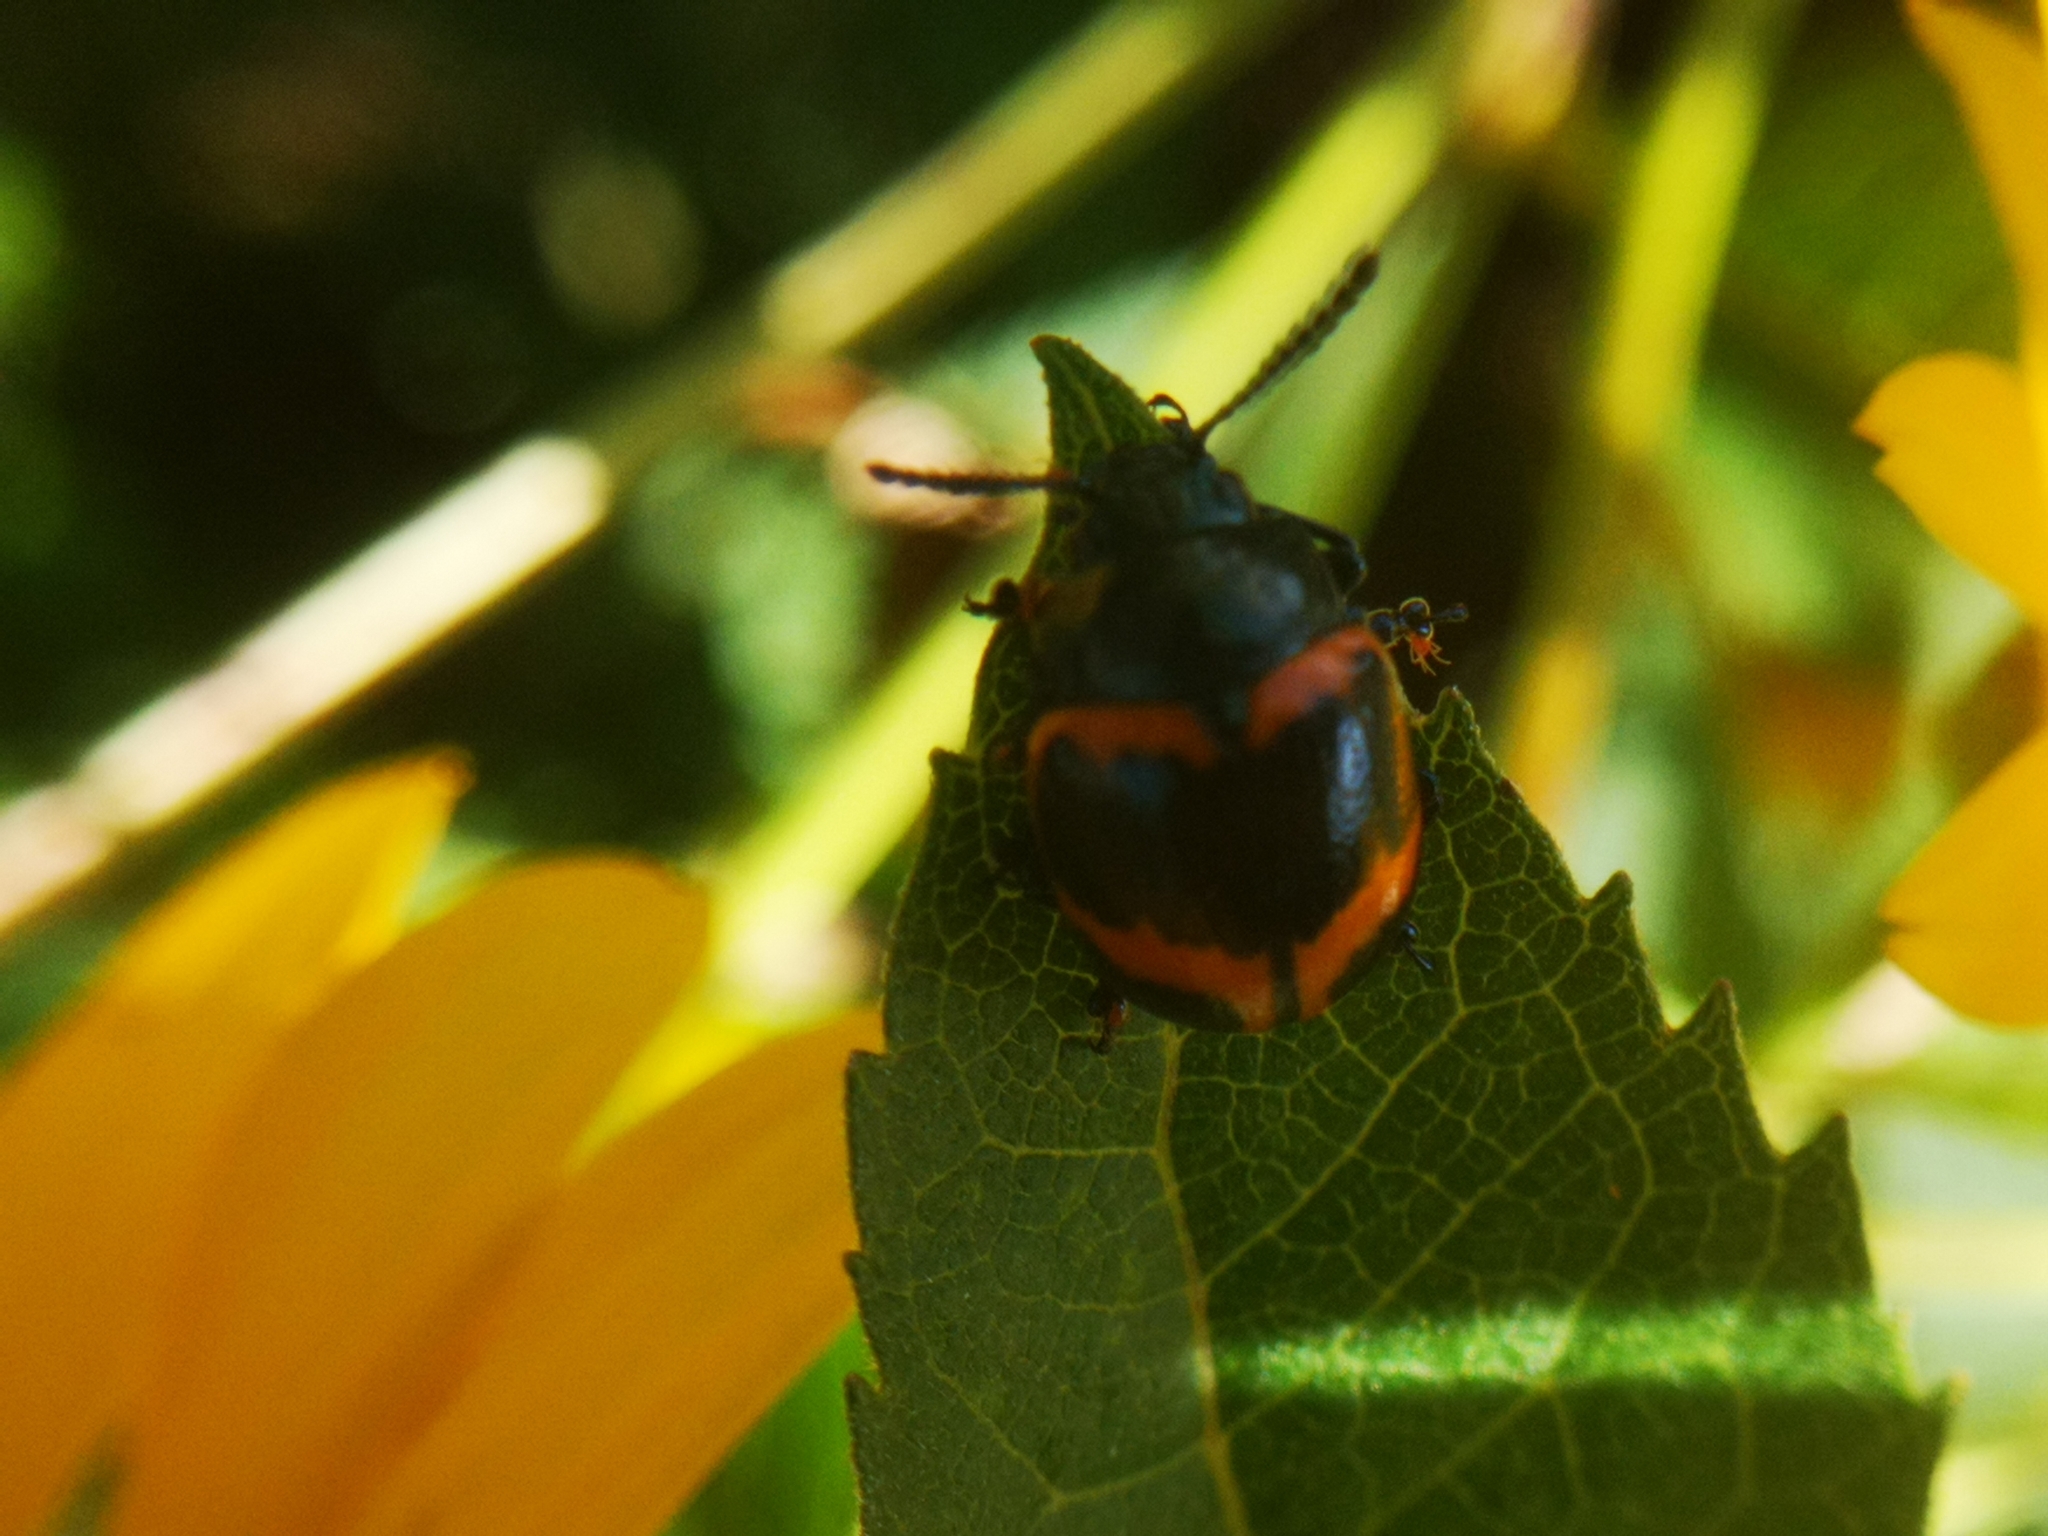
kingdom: Animalia
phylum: Arthropoda
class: Insecta
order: Coleoptera
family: Chrysomelidae
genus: Labidomera
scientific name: Labidomera clivicollis
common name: Swamp milkweed leaf beetle
